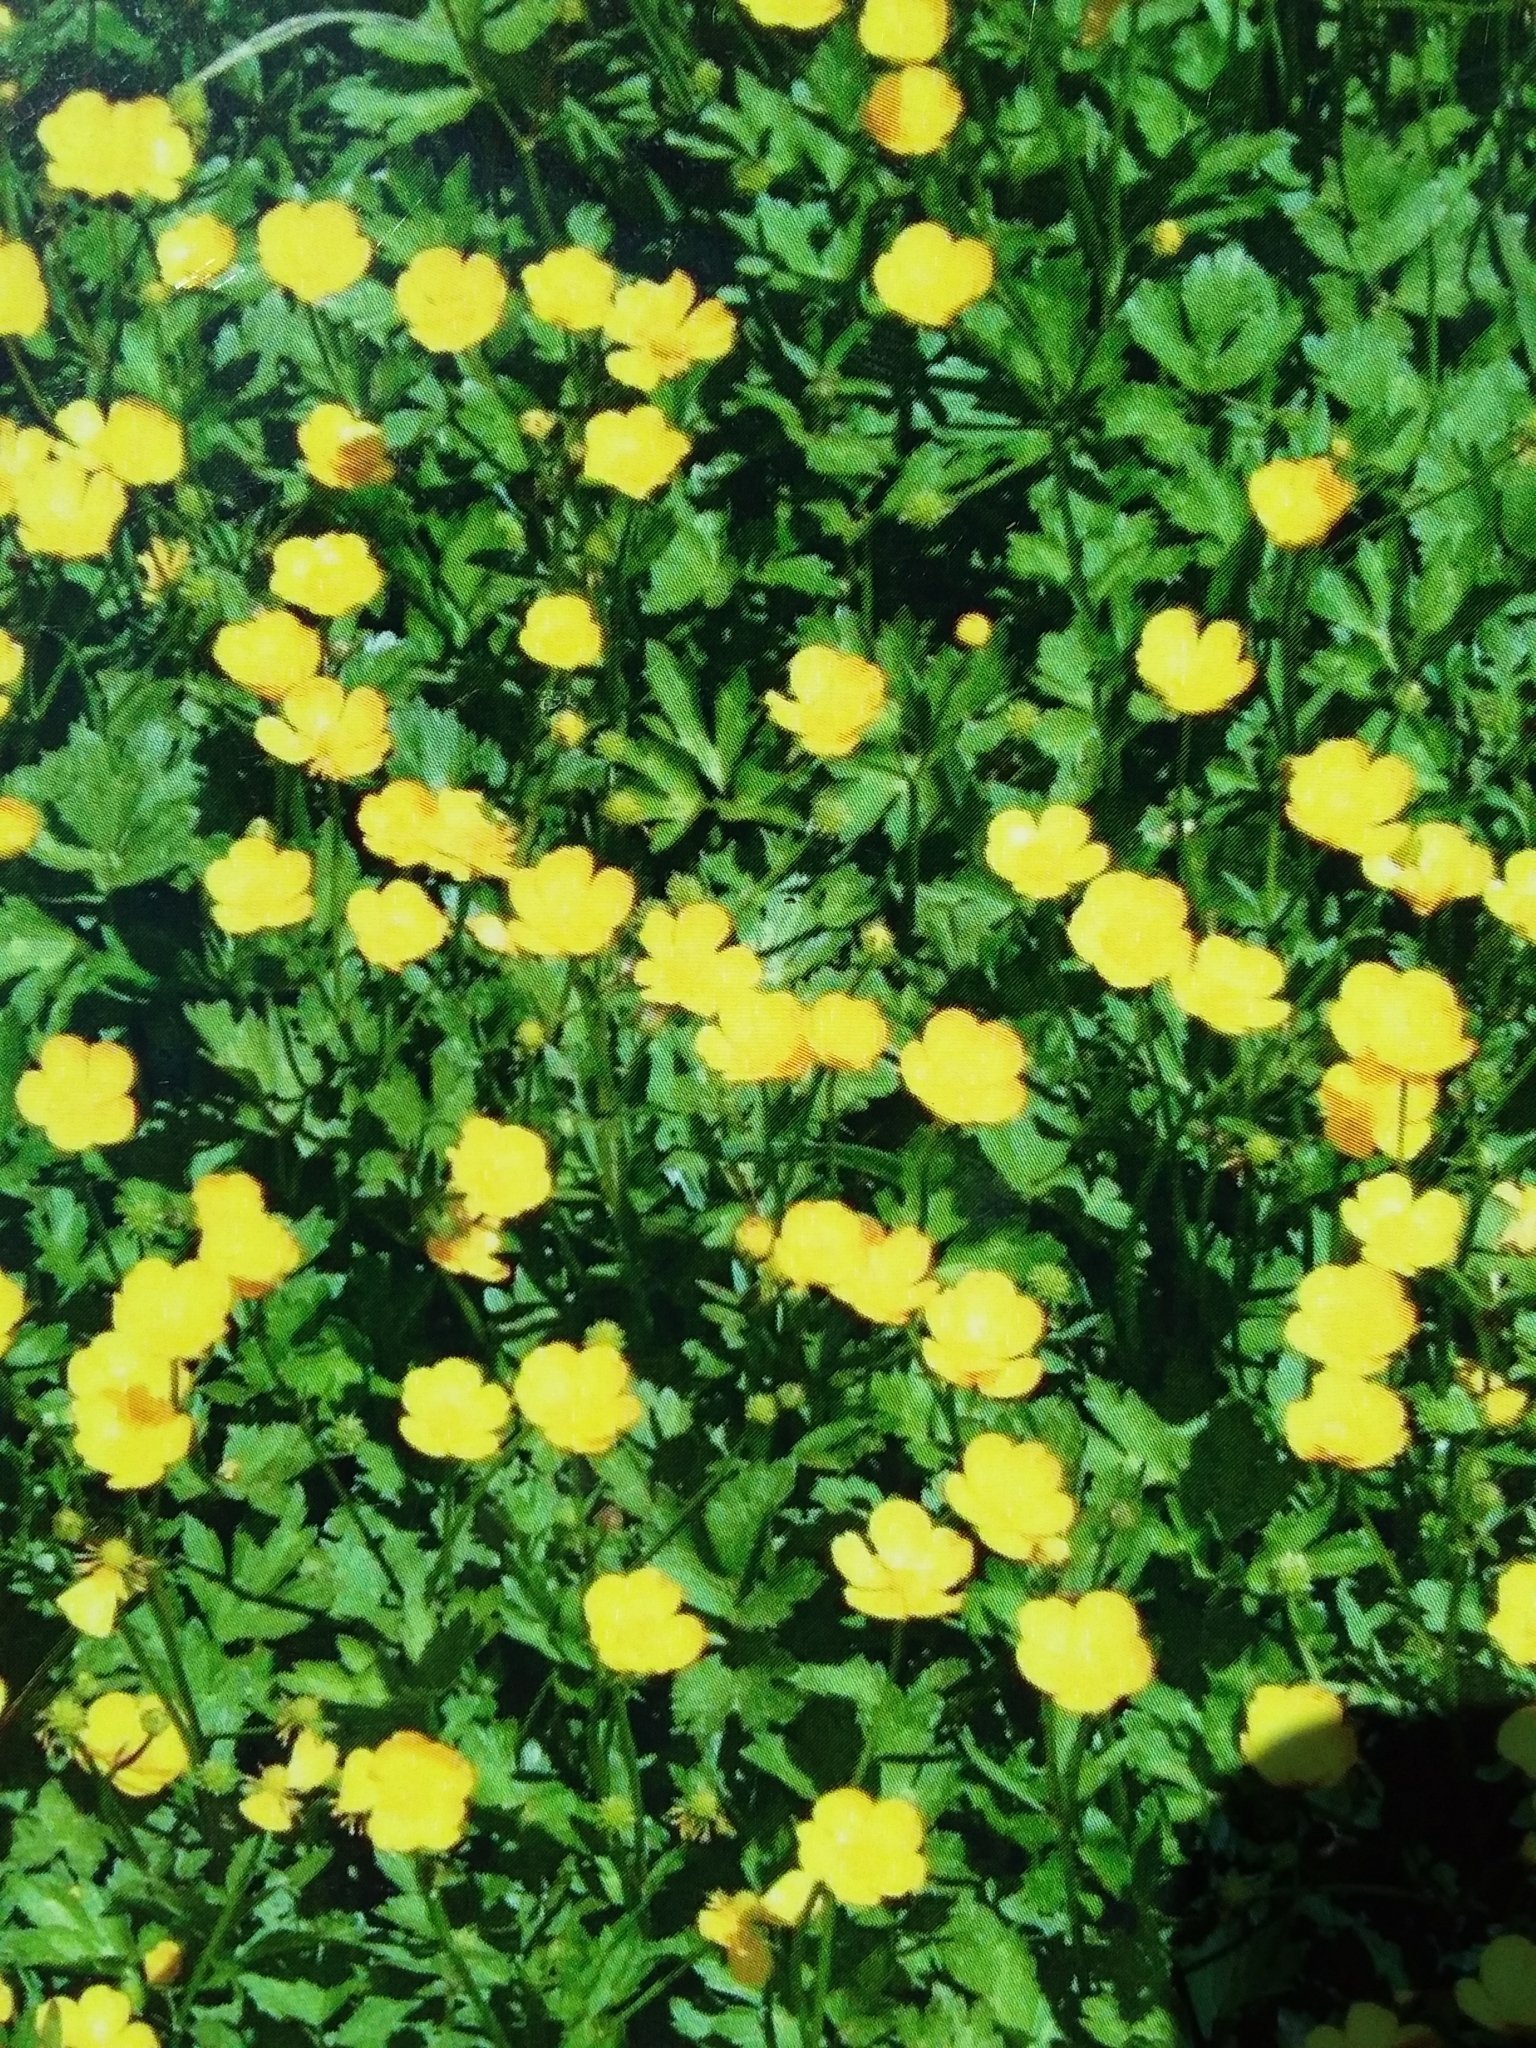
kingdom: Plantae
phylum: Tracheophyta
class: Magnoliopsida
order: Ranunculales
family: Ranunculaceae
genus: Ranunculus
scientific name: Ranunculus repens
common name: Creeping buttercup
